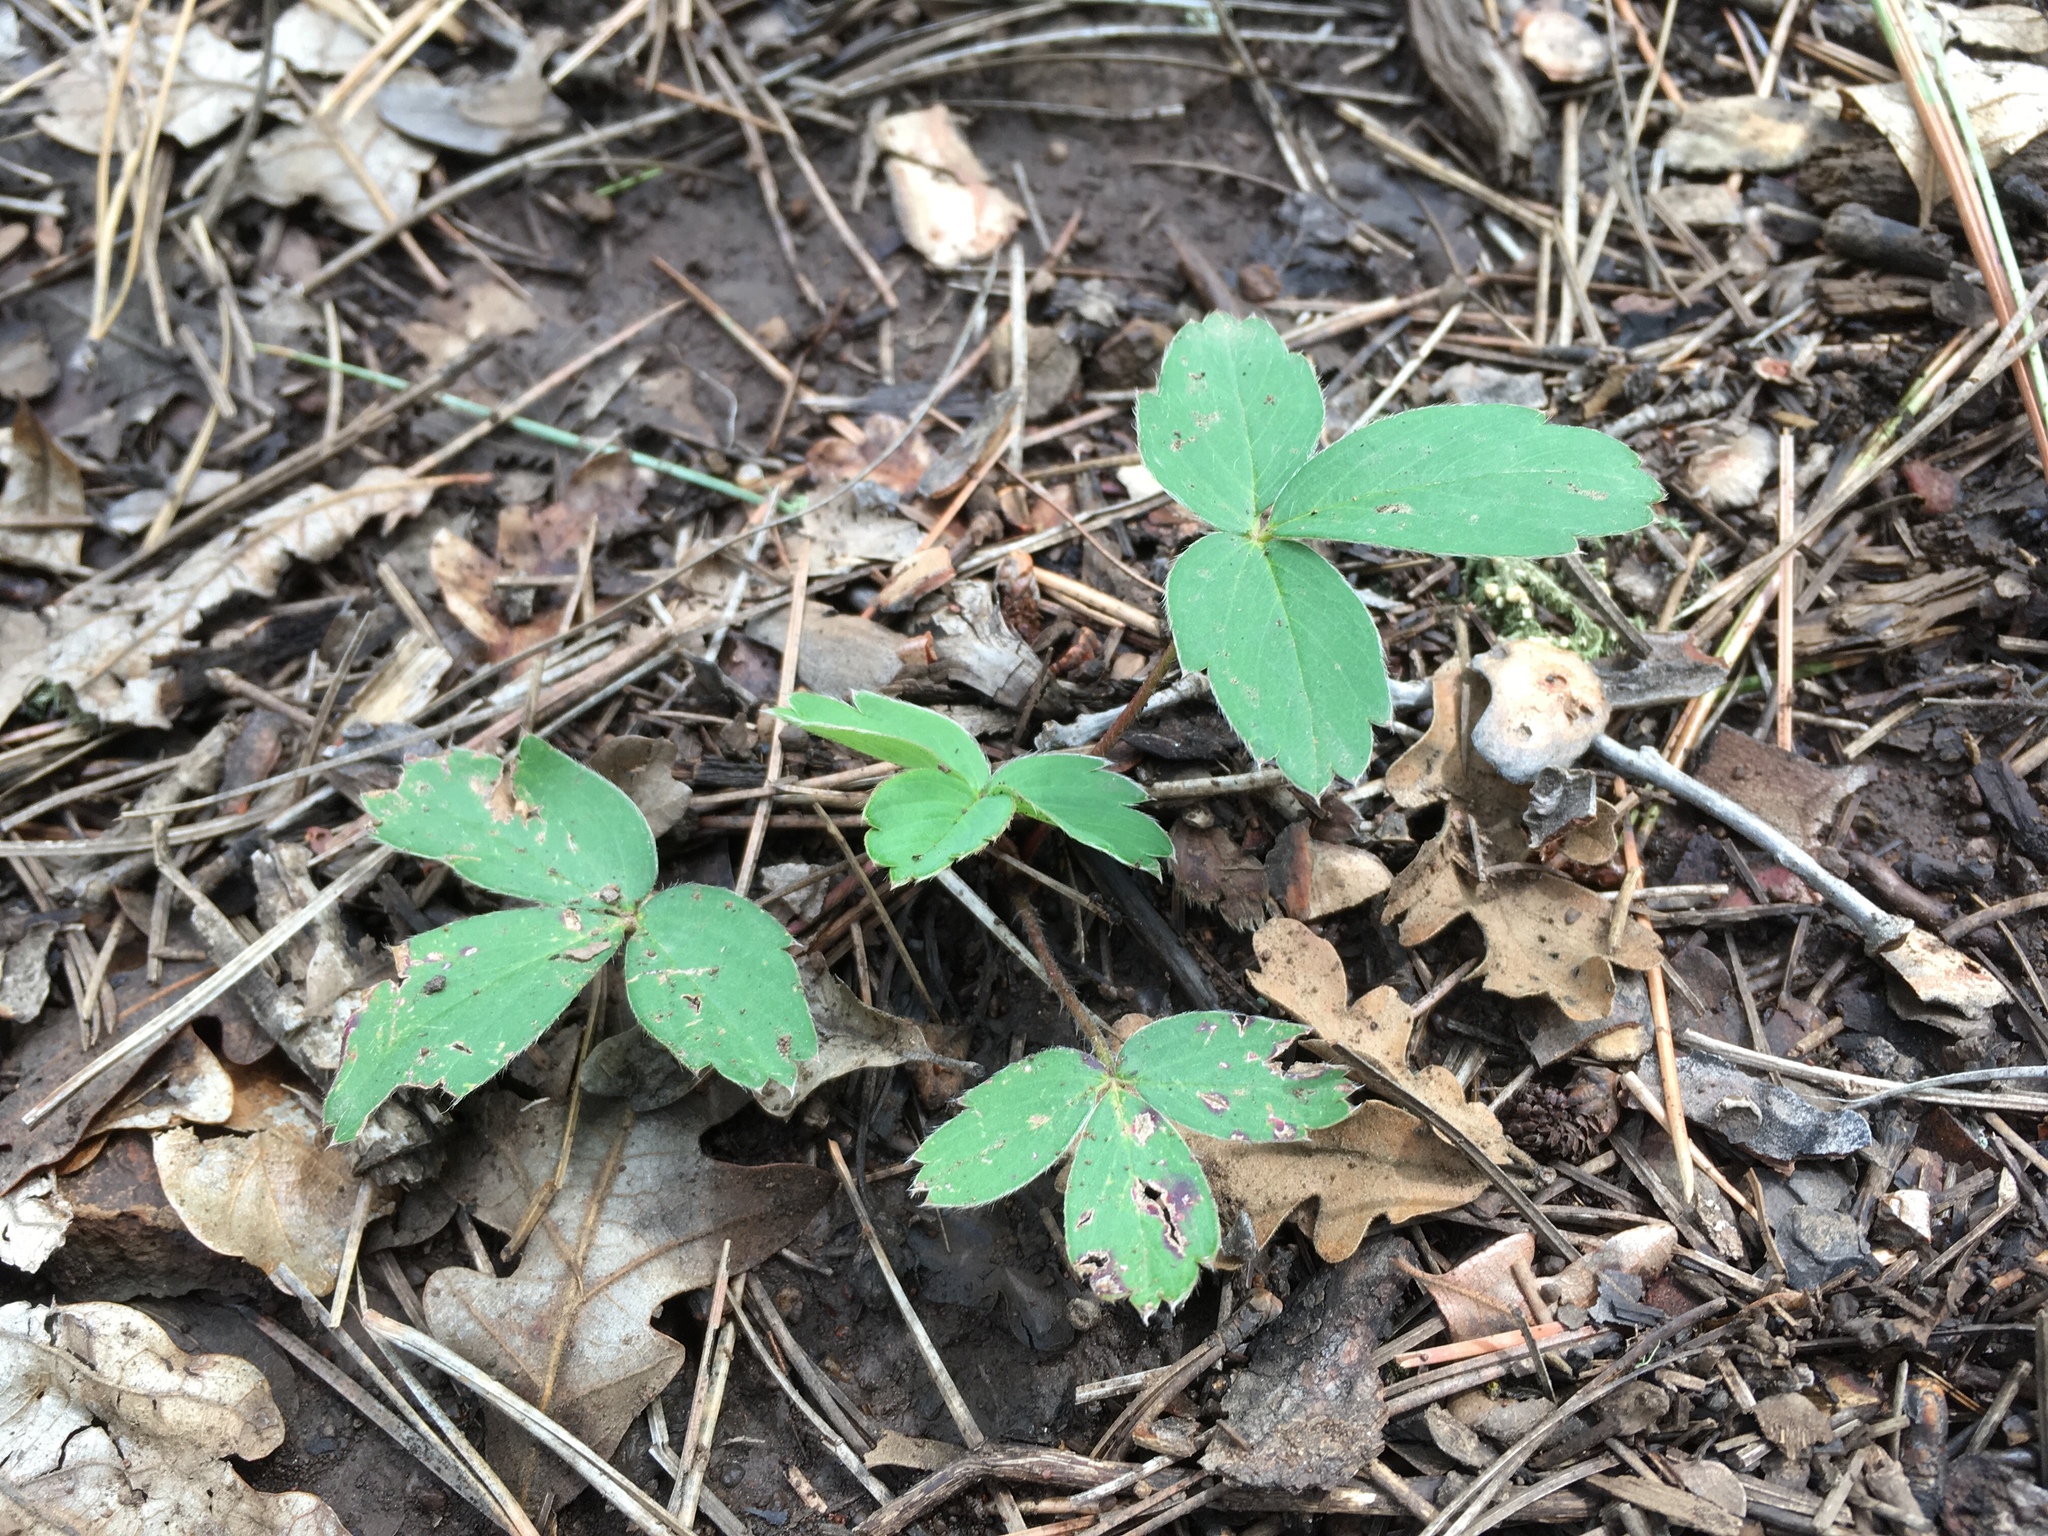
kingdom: Plantae
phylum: Tracheophyta
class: Magnoliopsida
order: Rosales
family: Rosaceae
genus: Fragaria
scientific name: Fragaria virginiana
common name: Thickleaved wild strawberry
